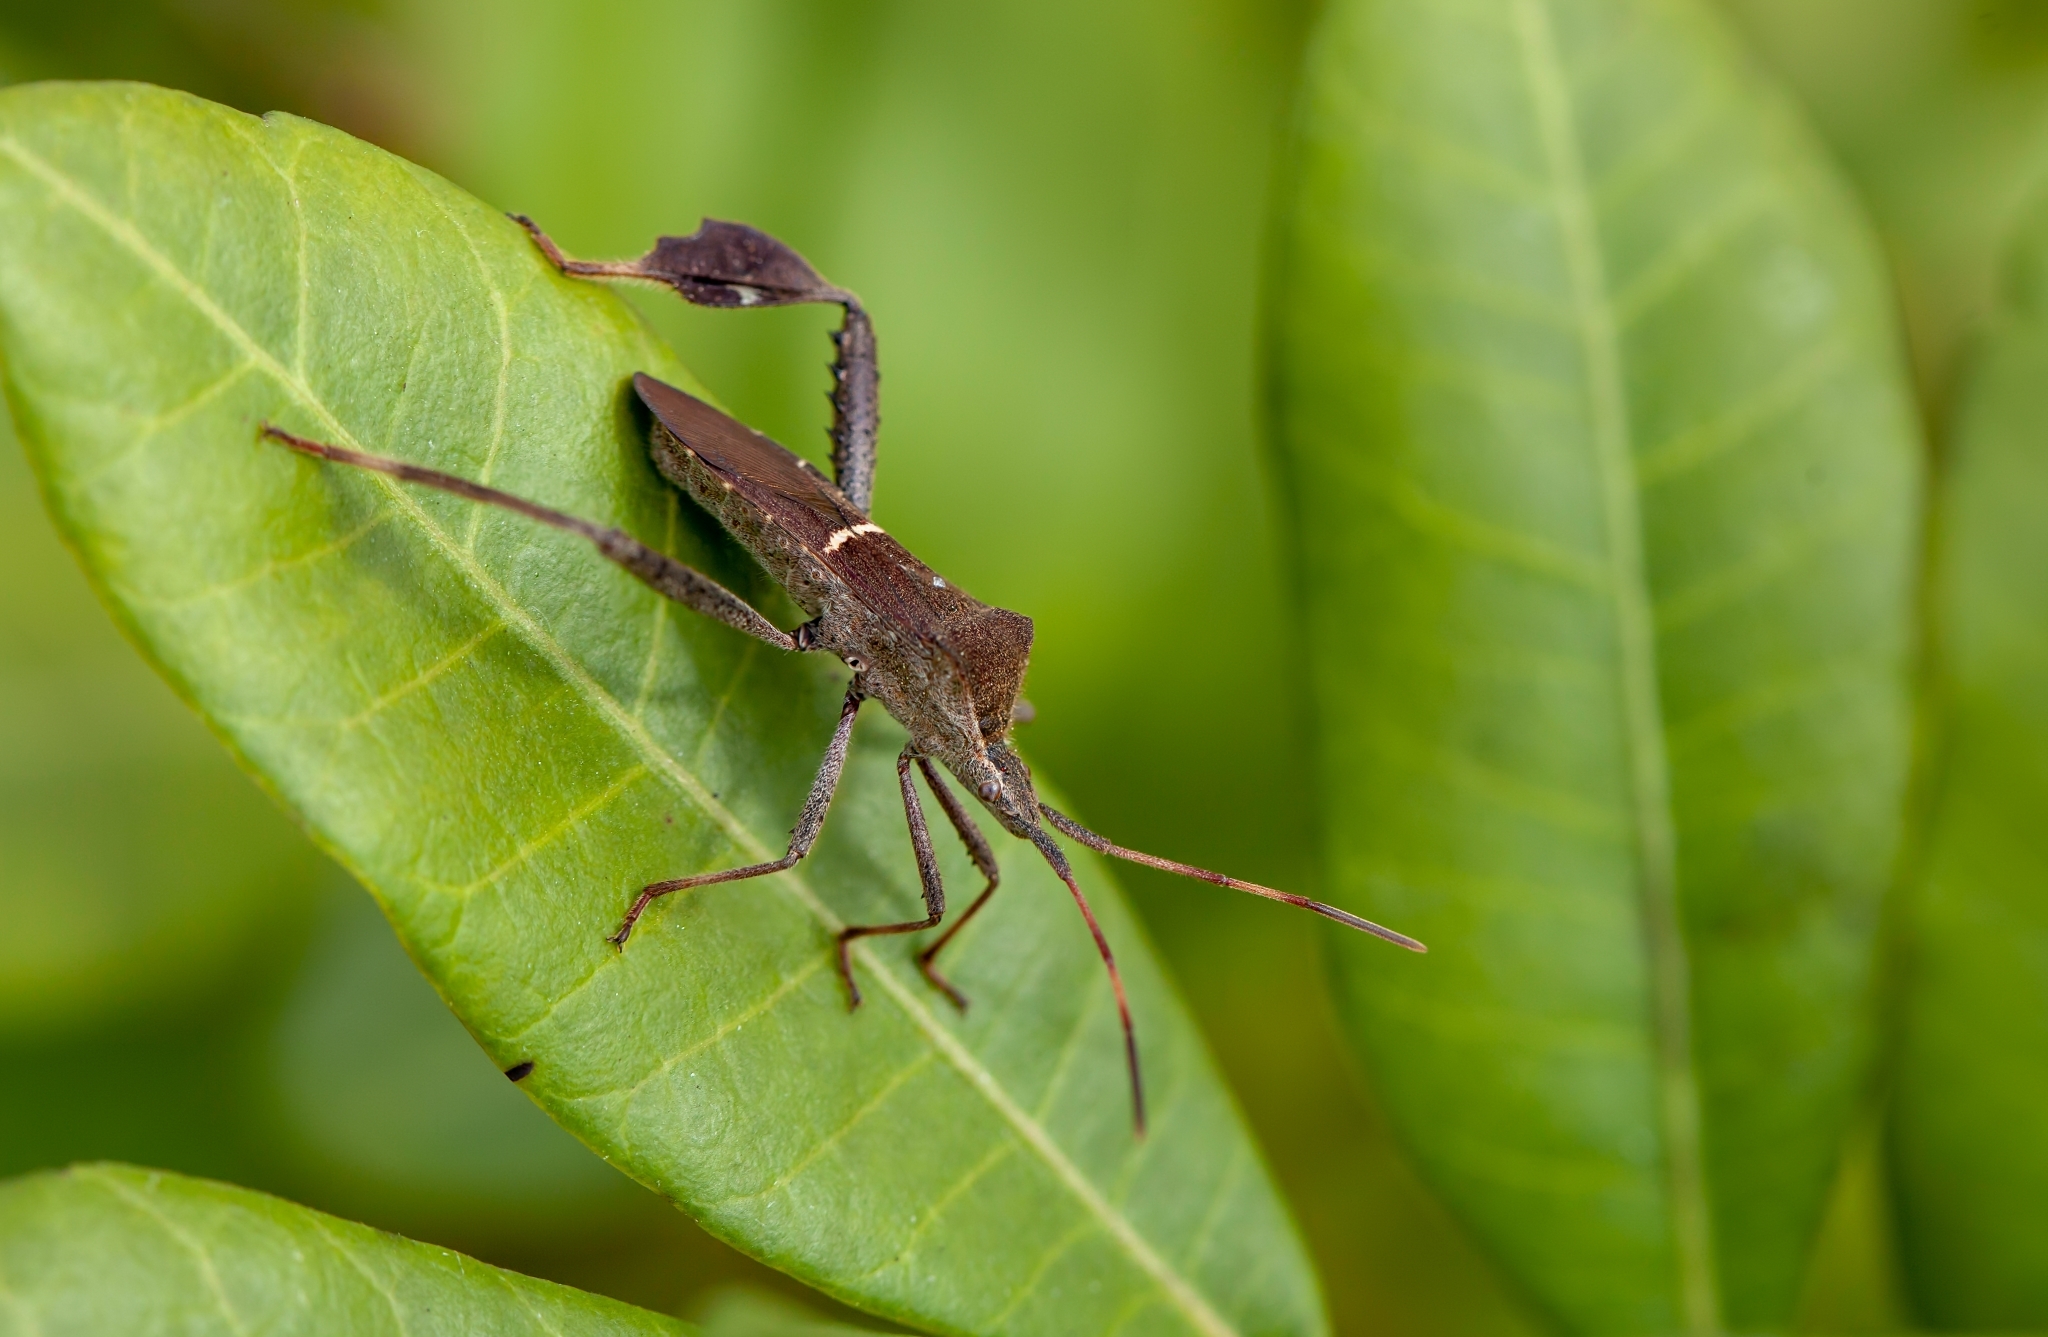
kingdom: Animalia
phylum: Arthropoda
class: Insecta
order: Hemiptera
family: Coreidae
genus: Leptoglossus
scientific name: Leptoglossus phyllopus
